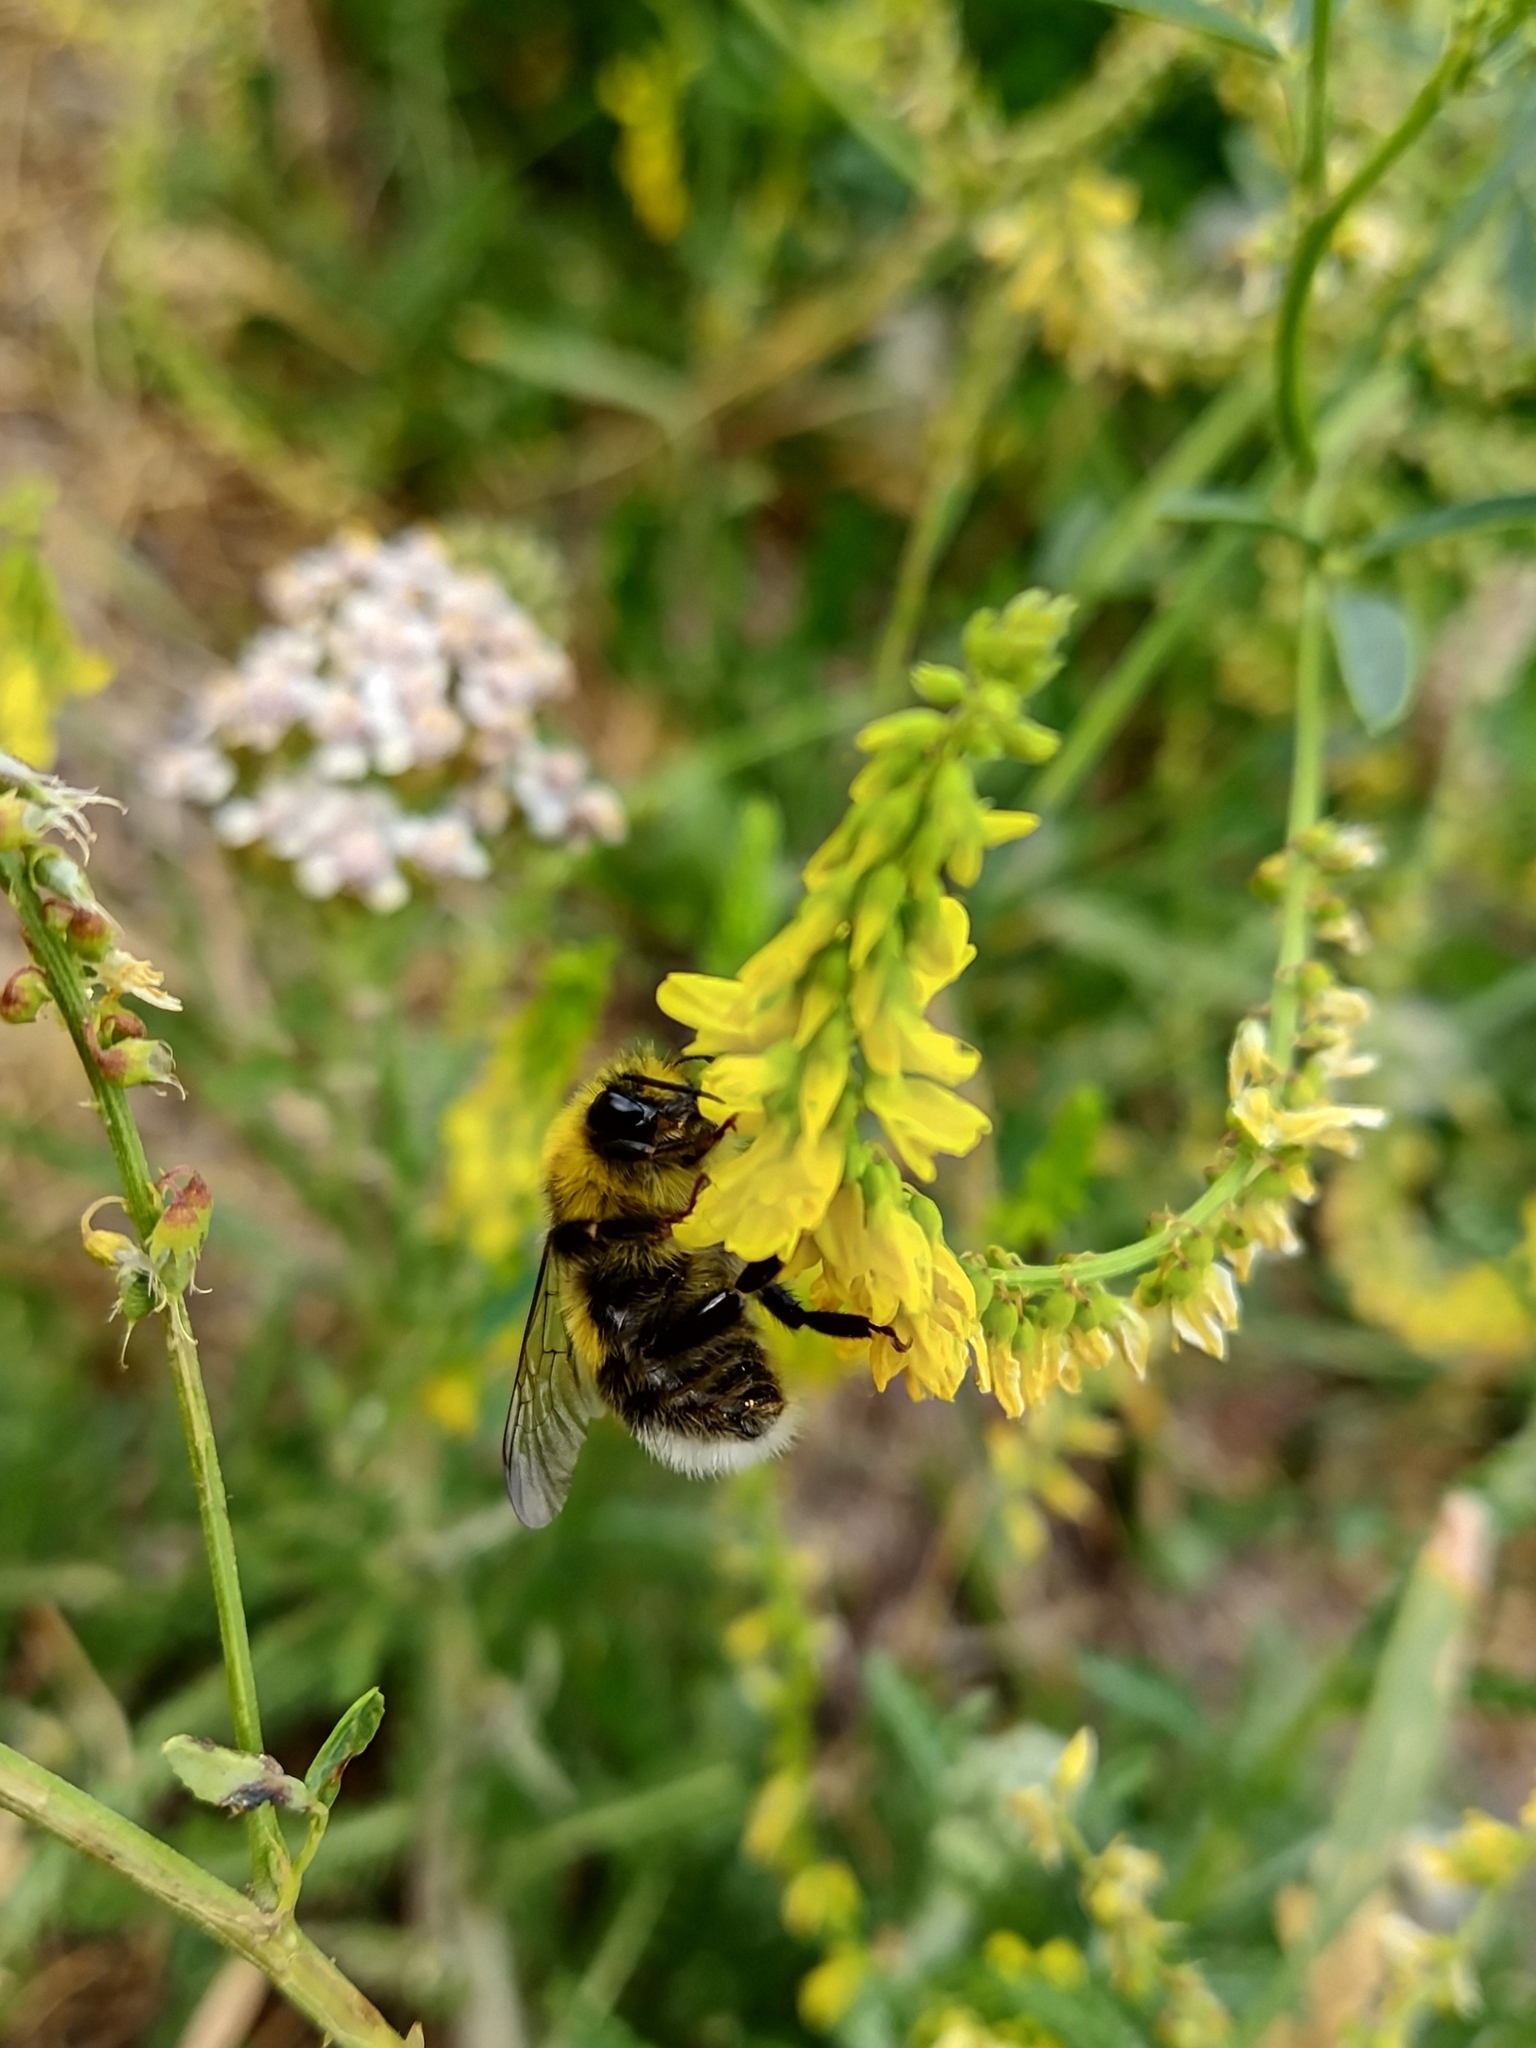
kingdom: Animalia
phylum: Arthropoda
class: Insecta
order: Hymenoptera
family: Apidae
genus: Bombus
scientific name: Bombus lucorum
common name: White-tailed bumblebee
